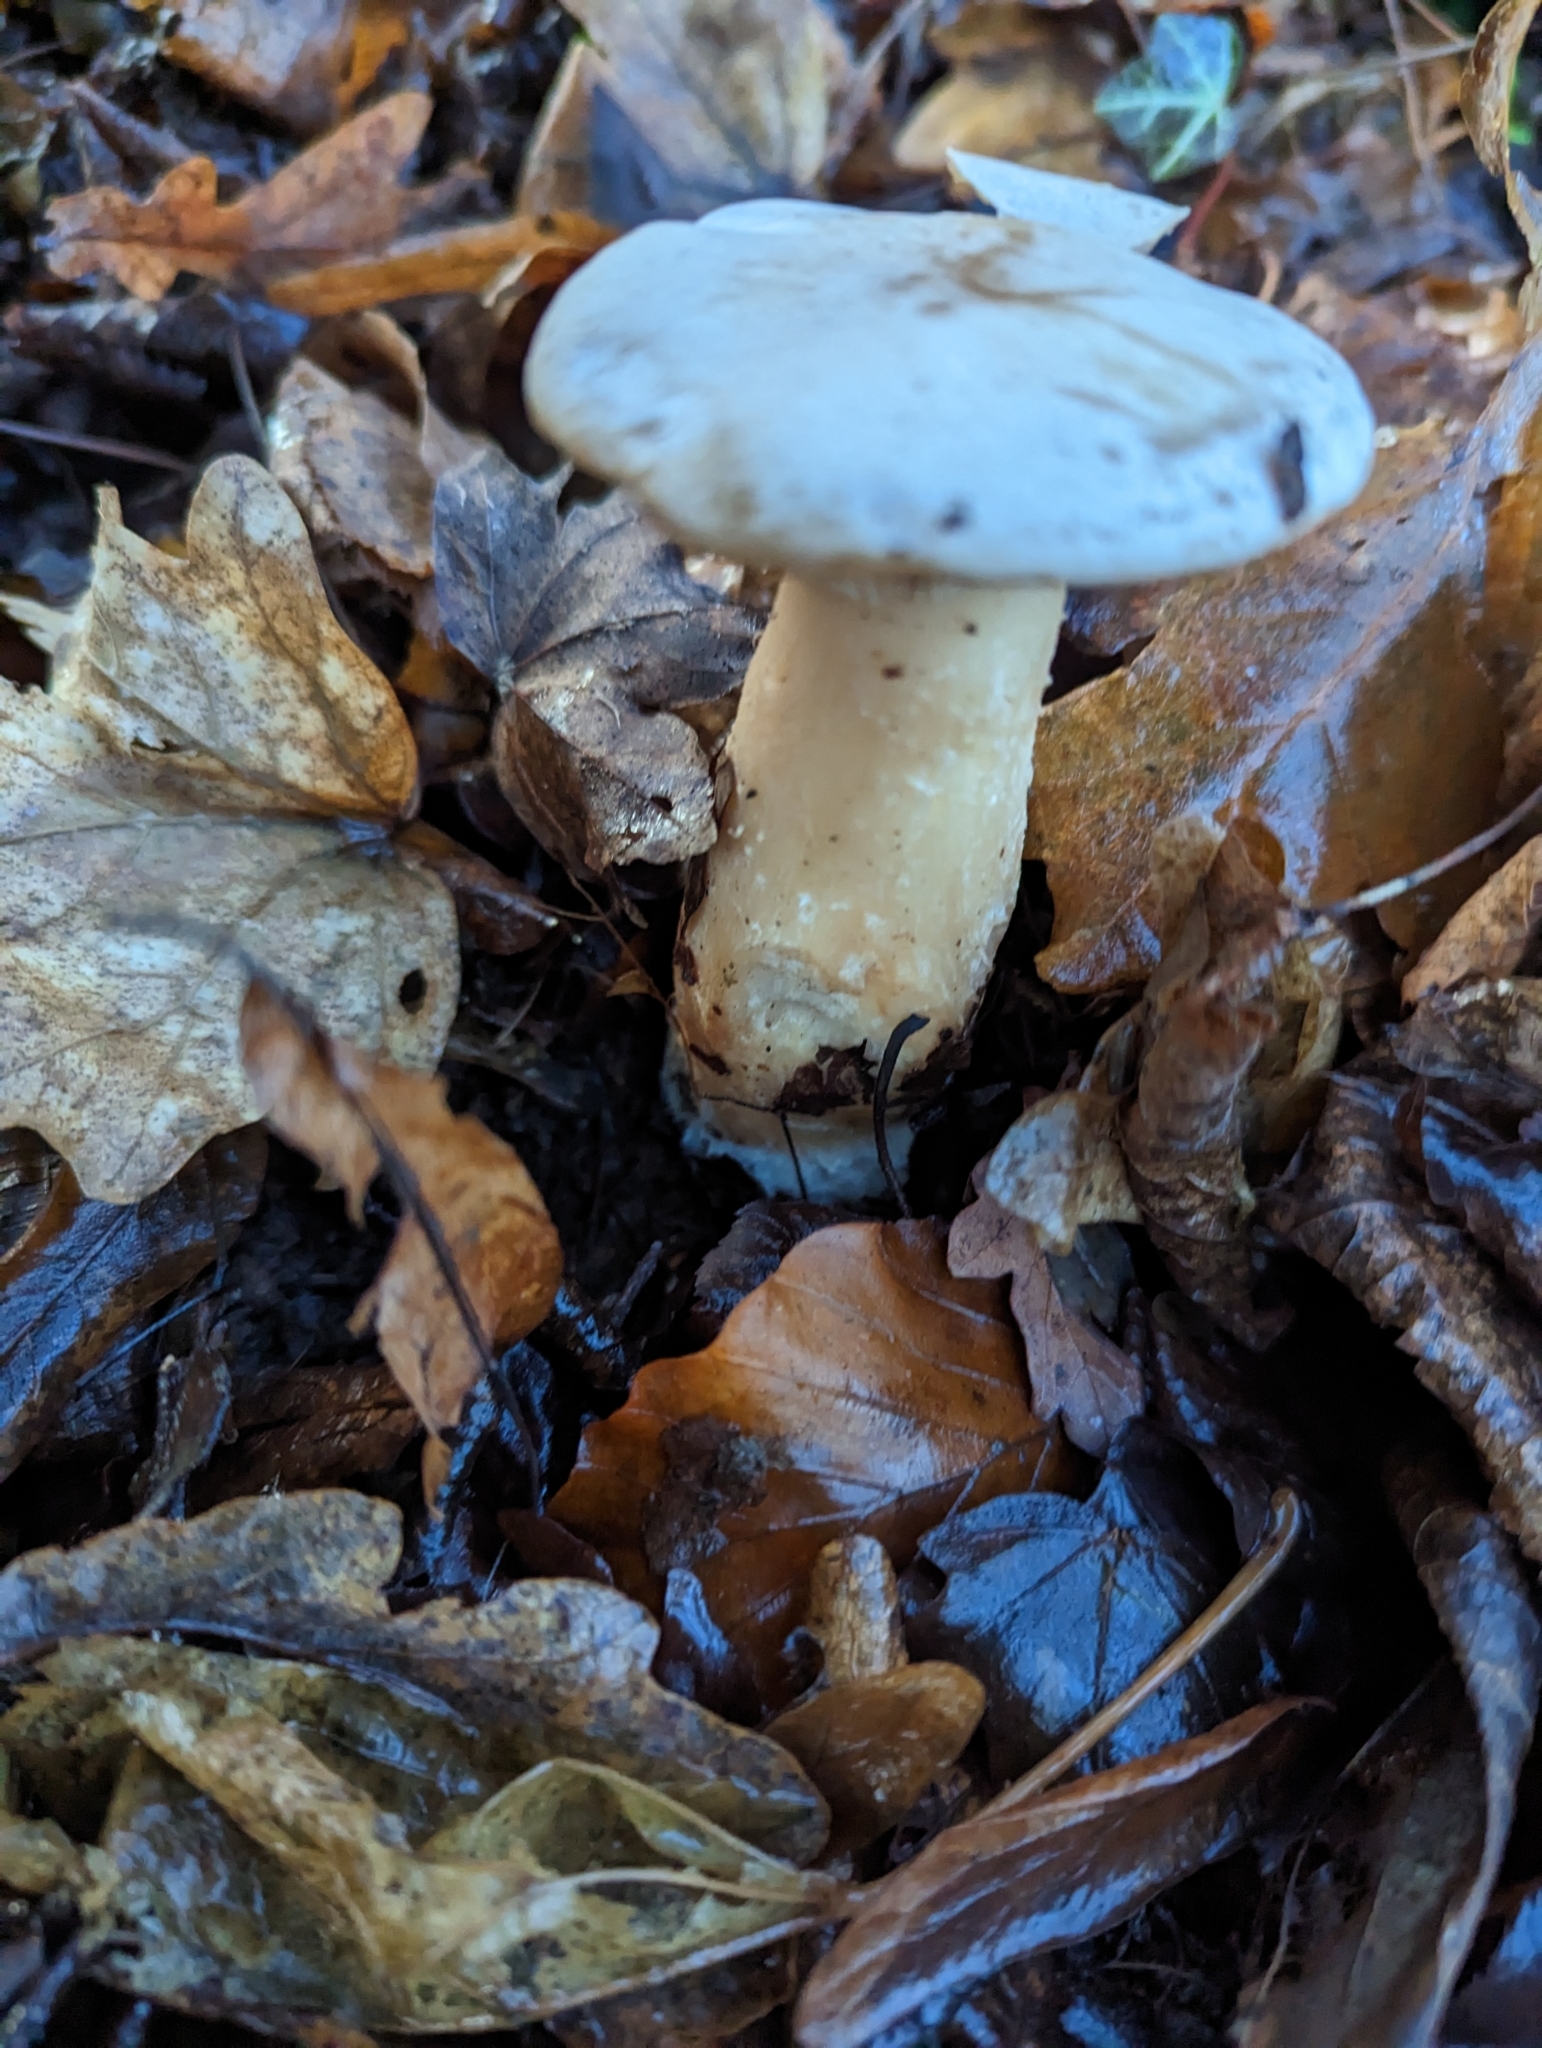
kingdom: Fungi
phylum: Basidiomycota
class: Agaricomycetes
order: Agaricales
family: Tricholomataceae
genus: Infundibulicybe
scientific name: Infundibulicybe geotropa
